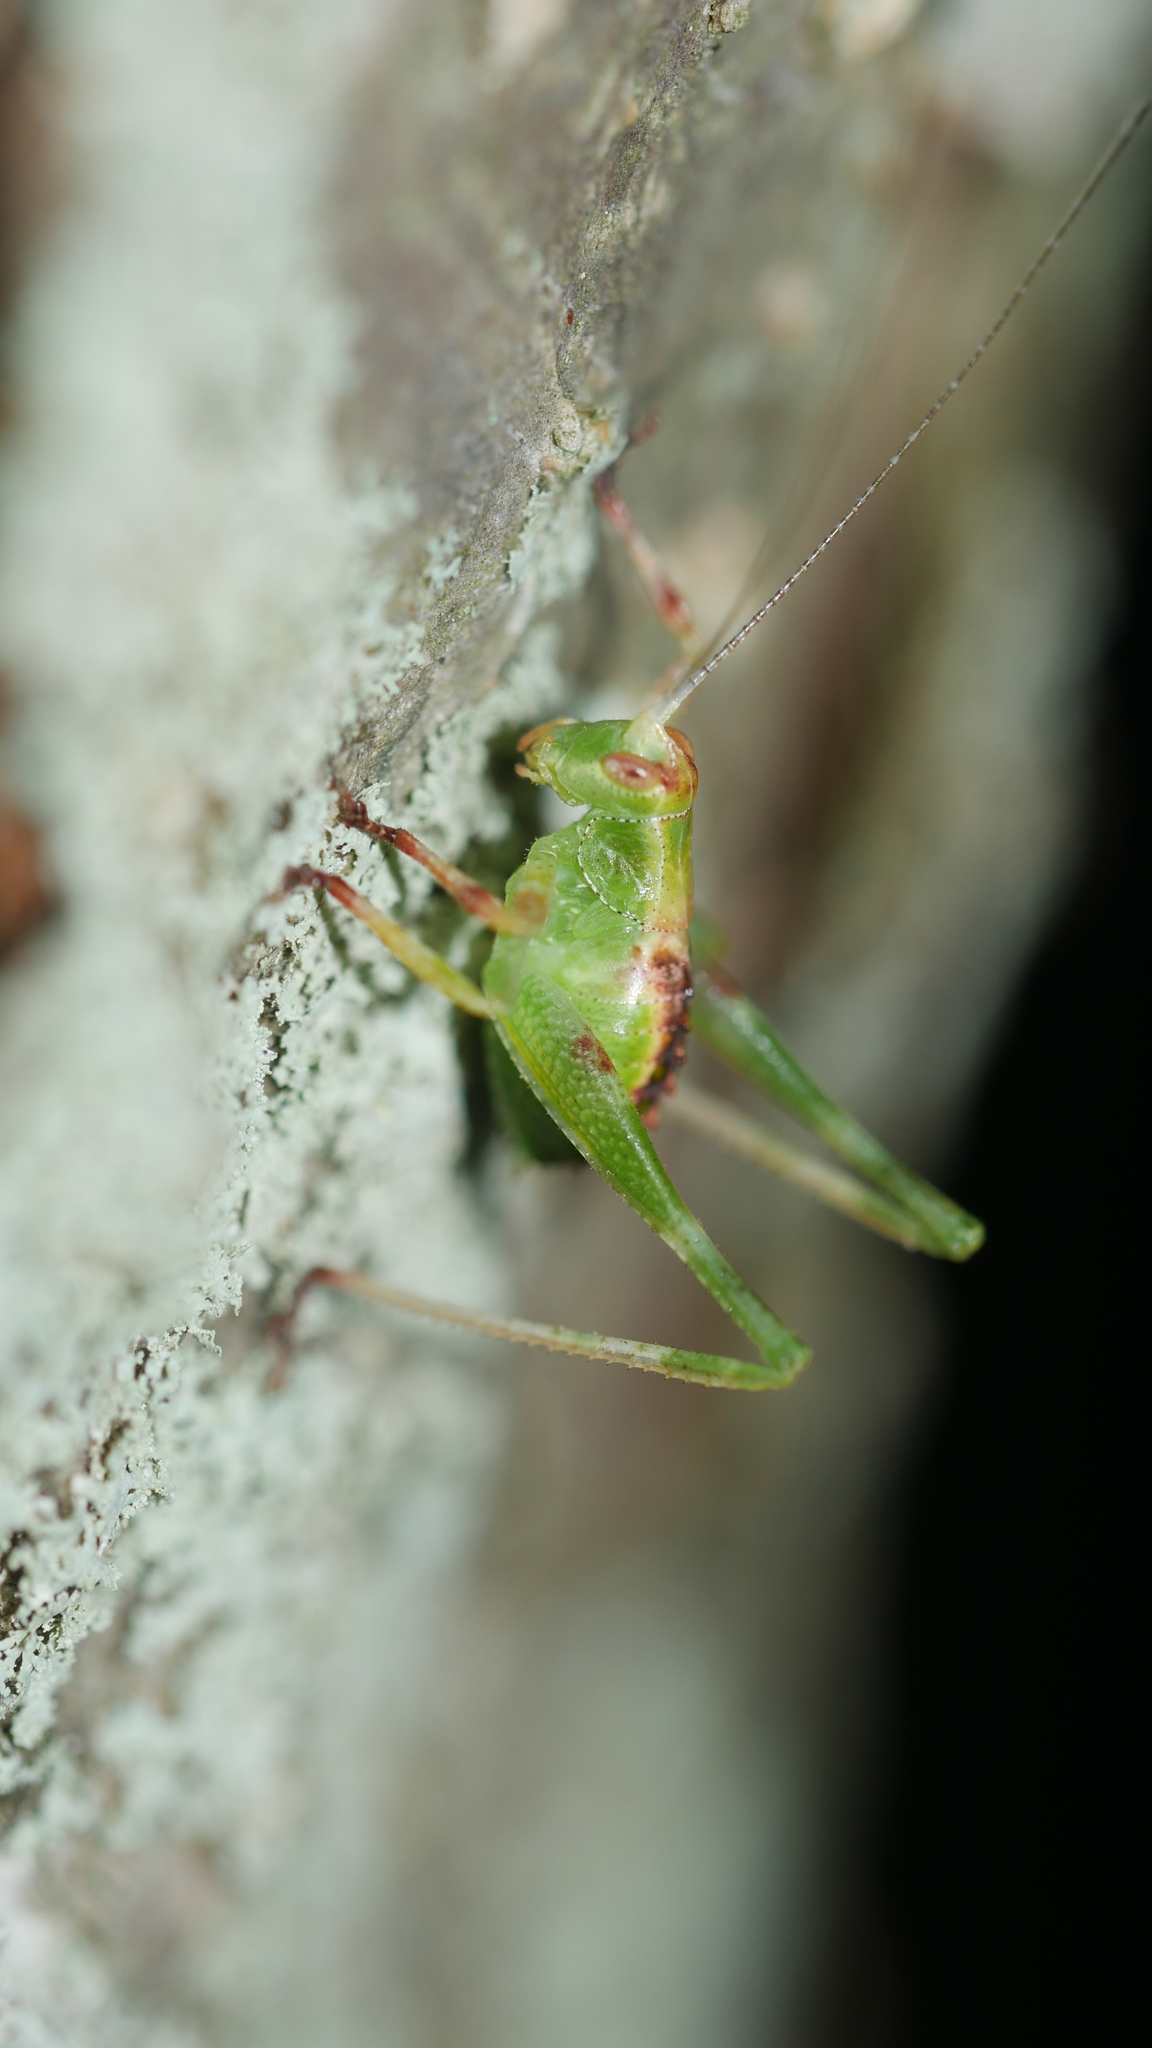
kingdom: Animalia
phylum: Arthropoda
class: Insecta
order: Orthoptera
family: Tettigoniidae
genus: Montezumina
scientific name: Montezumina modesta
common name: Modest katydid
